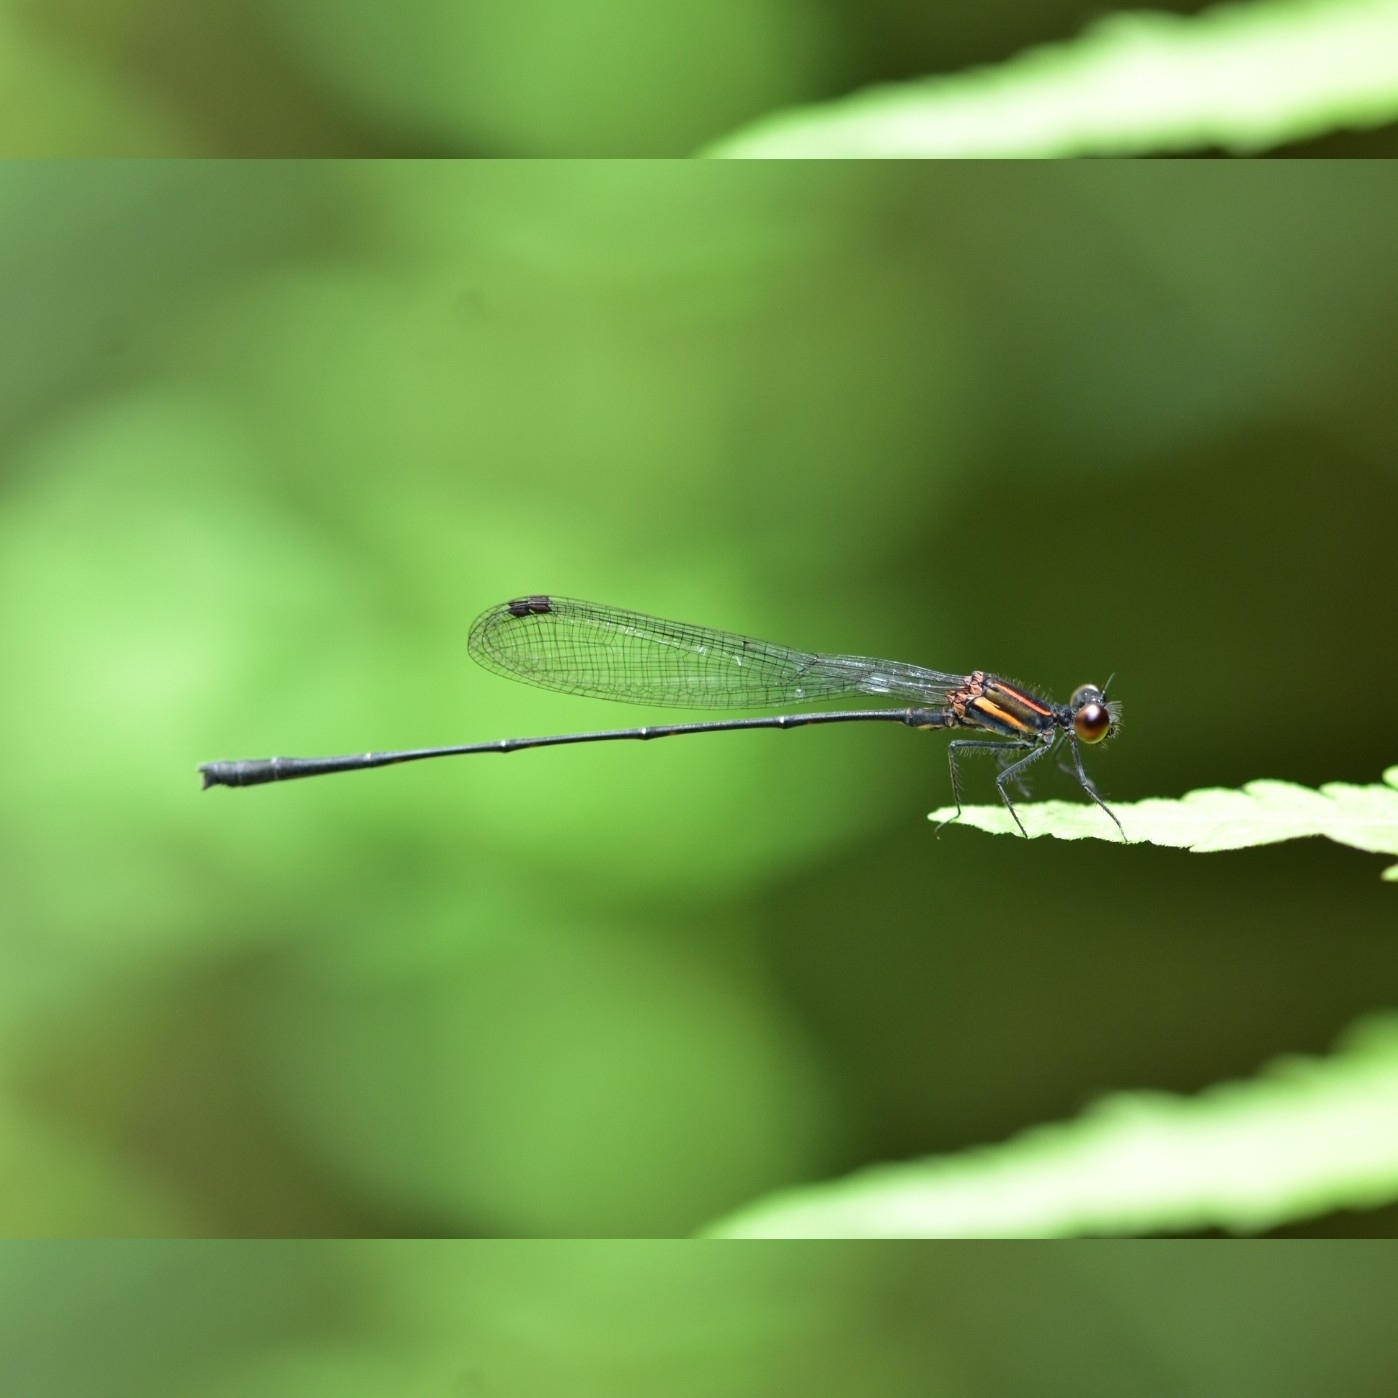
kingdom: Animalia
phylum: Arthropoda
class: Insecta
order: Odonata
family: Platycnemididae
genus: Prodasineura
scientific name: Prodasineura verticalis
